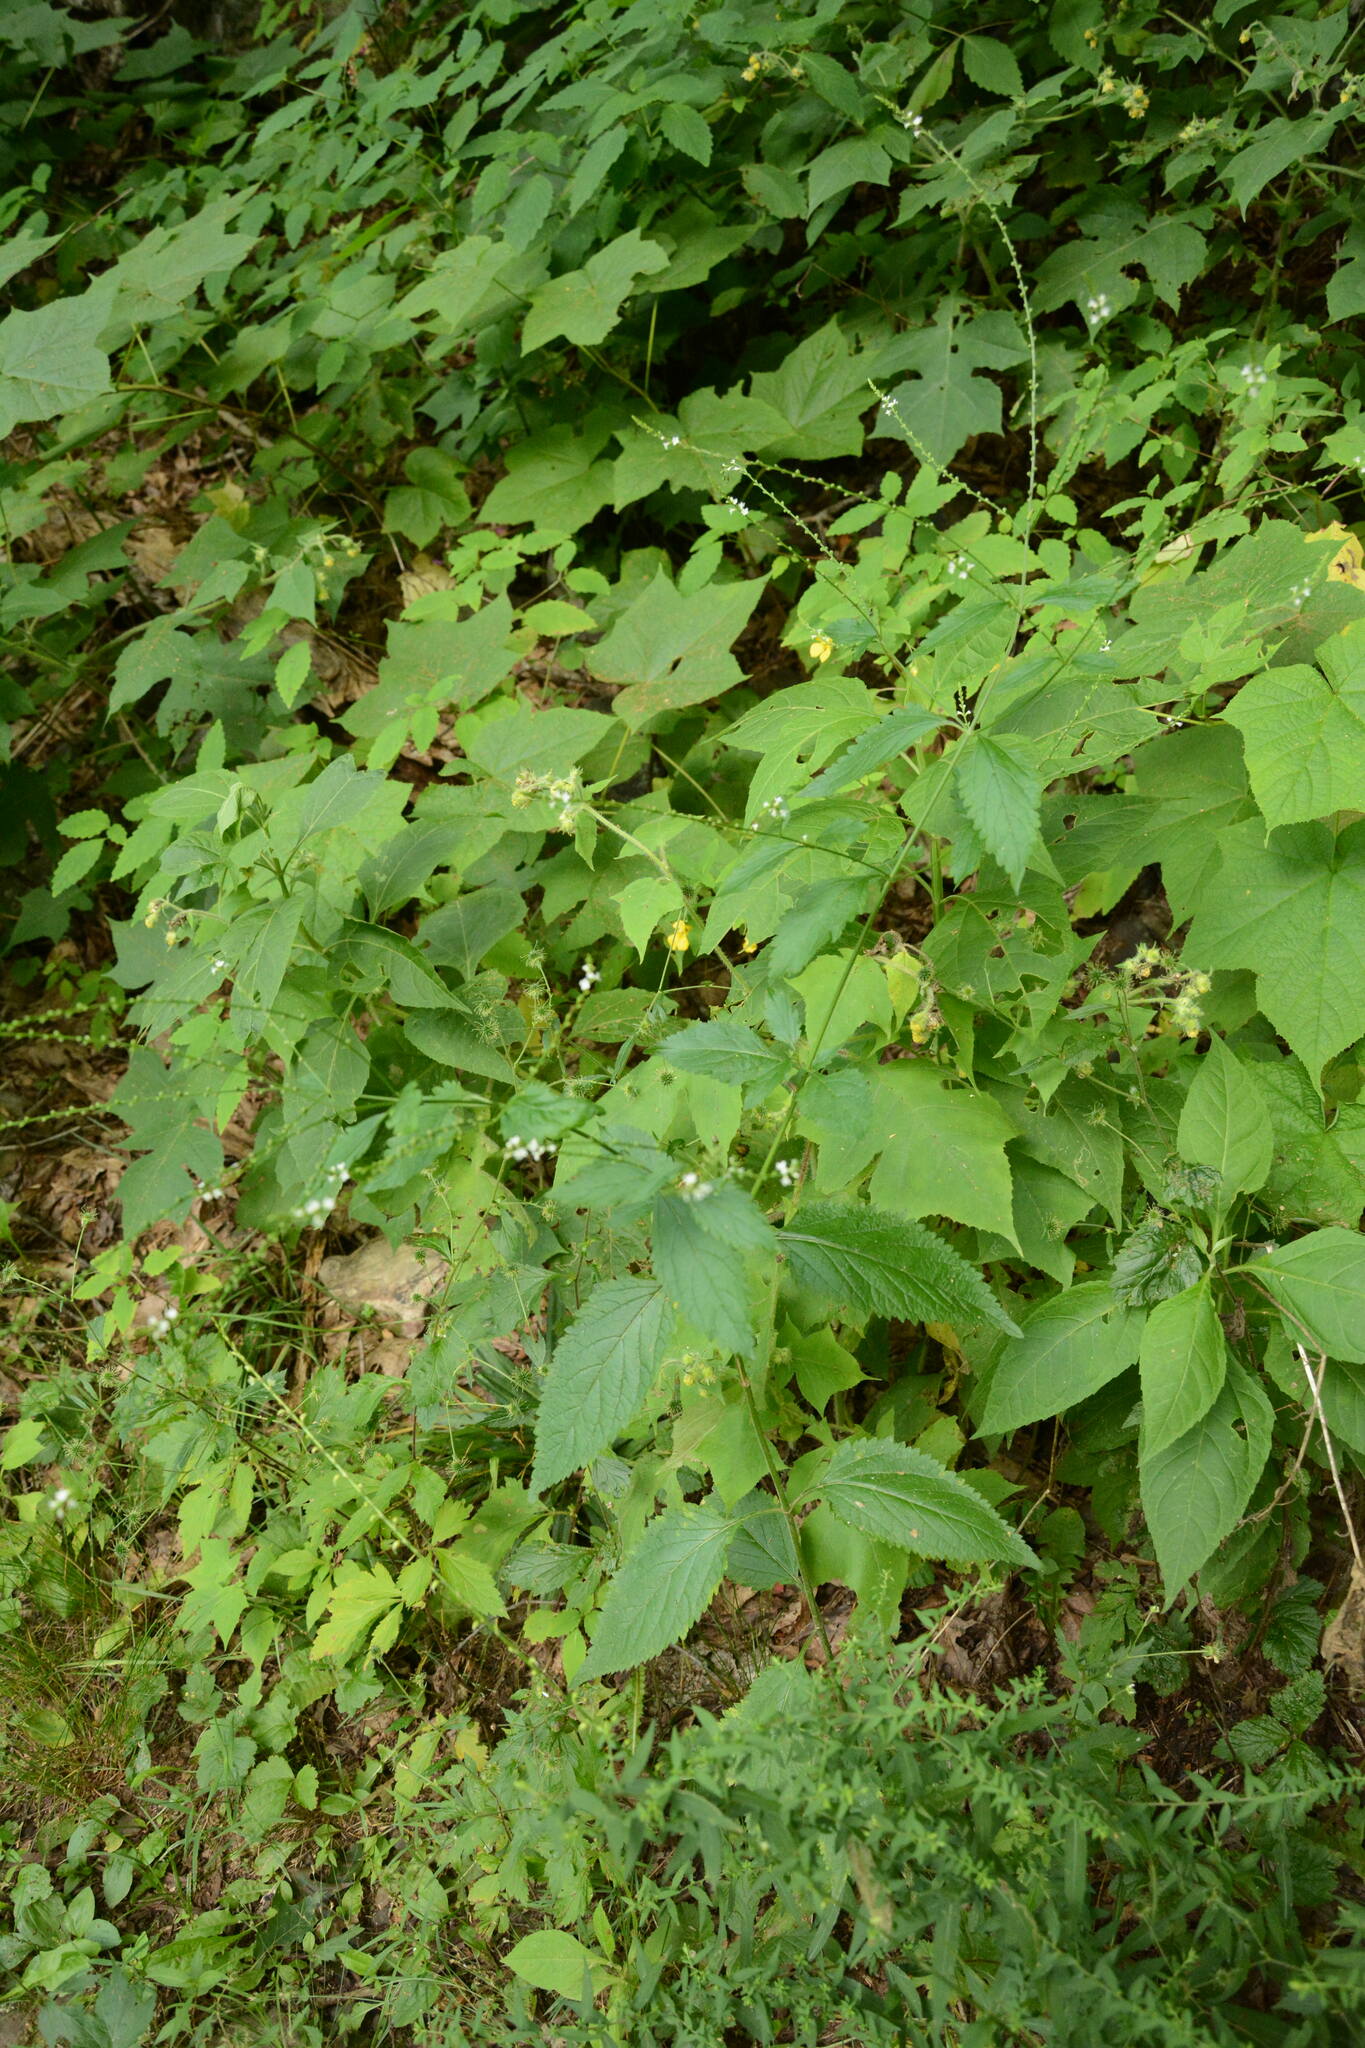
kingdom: Plantae
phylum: Tracheophyta
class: Magnoliopsida
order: Lamiales
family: Verbenaceae
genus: Verbena
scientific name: Verbena urticifolia
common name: Nettle-leaved vervain
